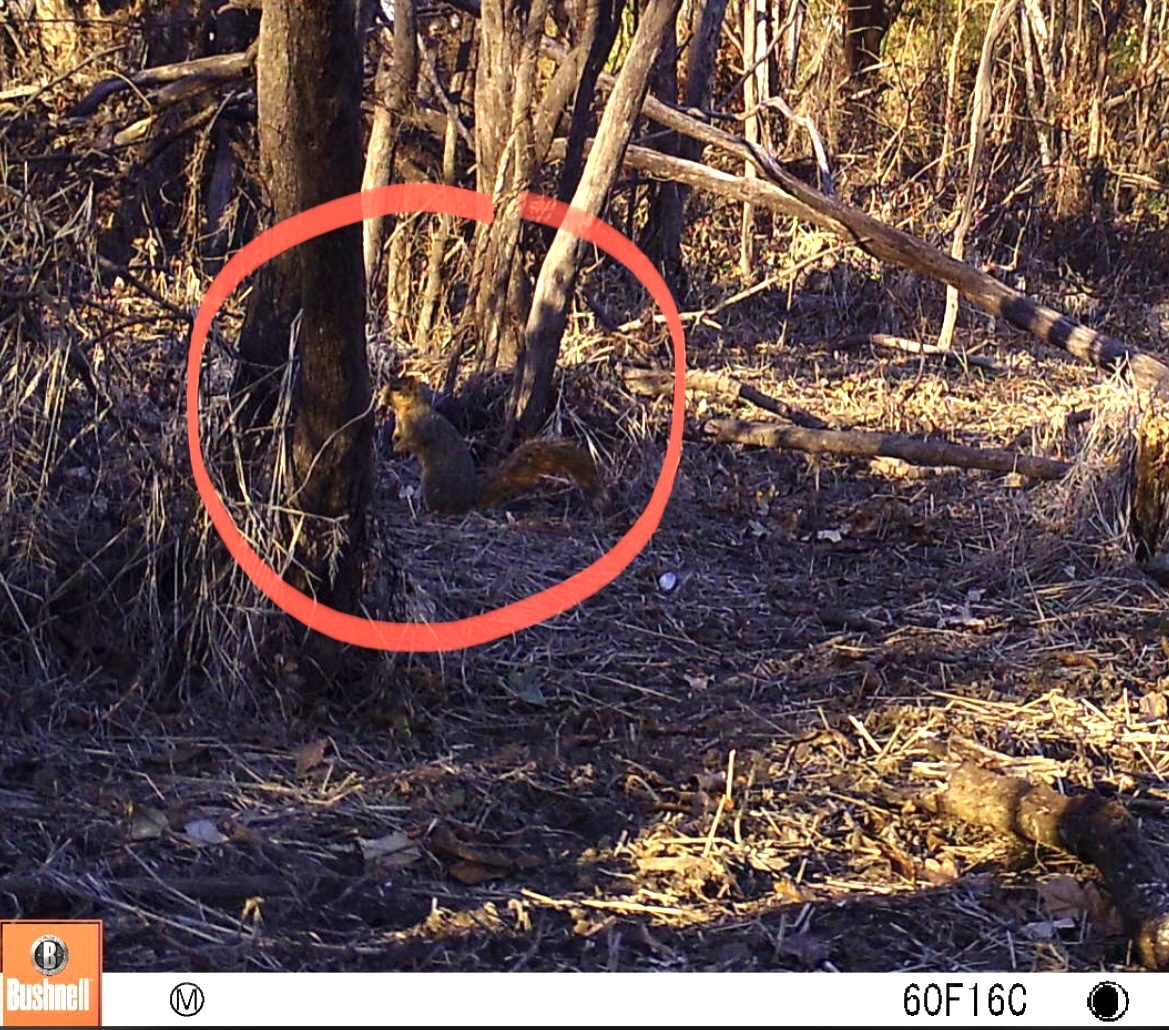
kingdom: Animalia
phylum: Chordata
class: Mammalia
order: Rodentia
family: Sciuridae
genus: Sciurus
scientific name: Sciurus niger
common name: Fox squirrel
